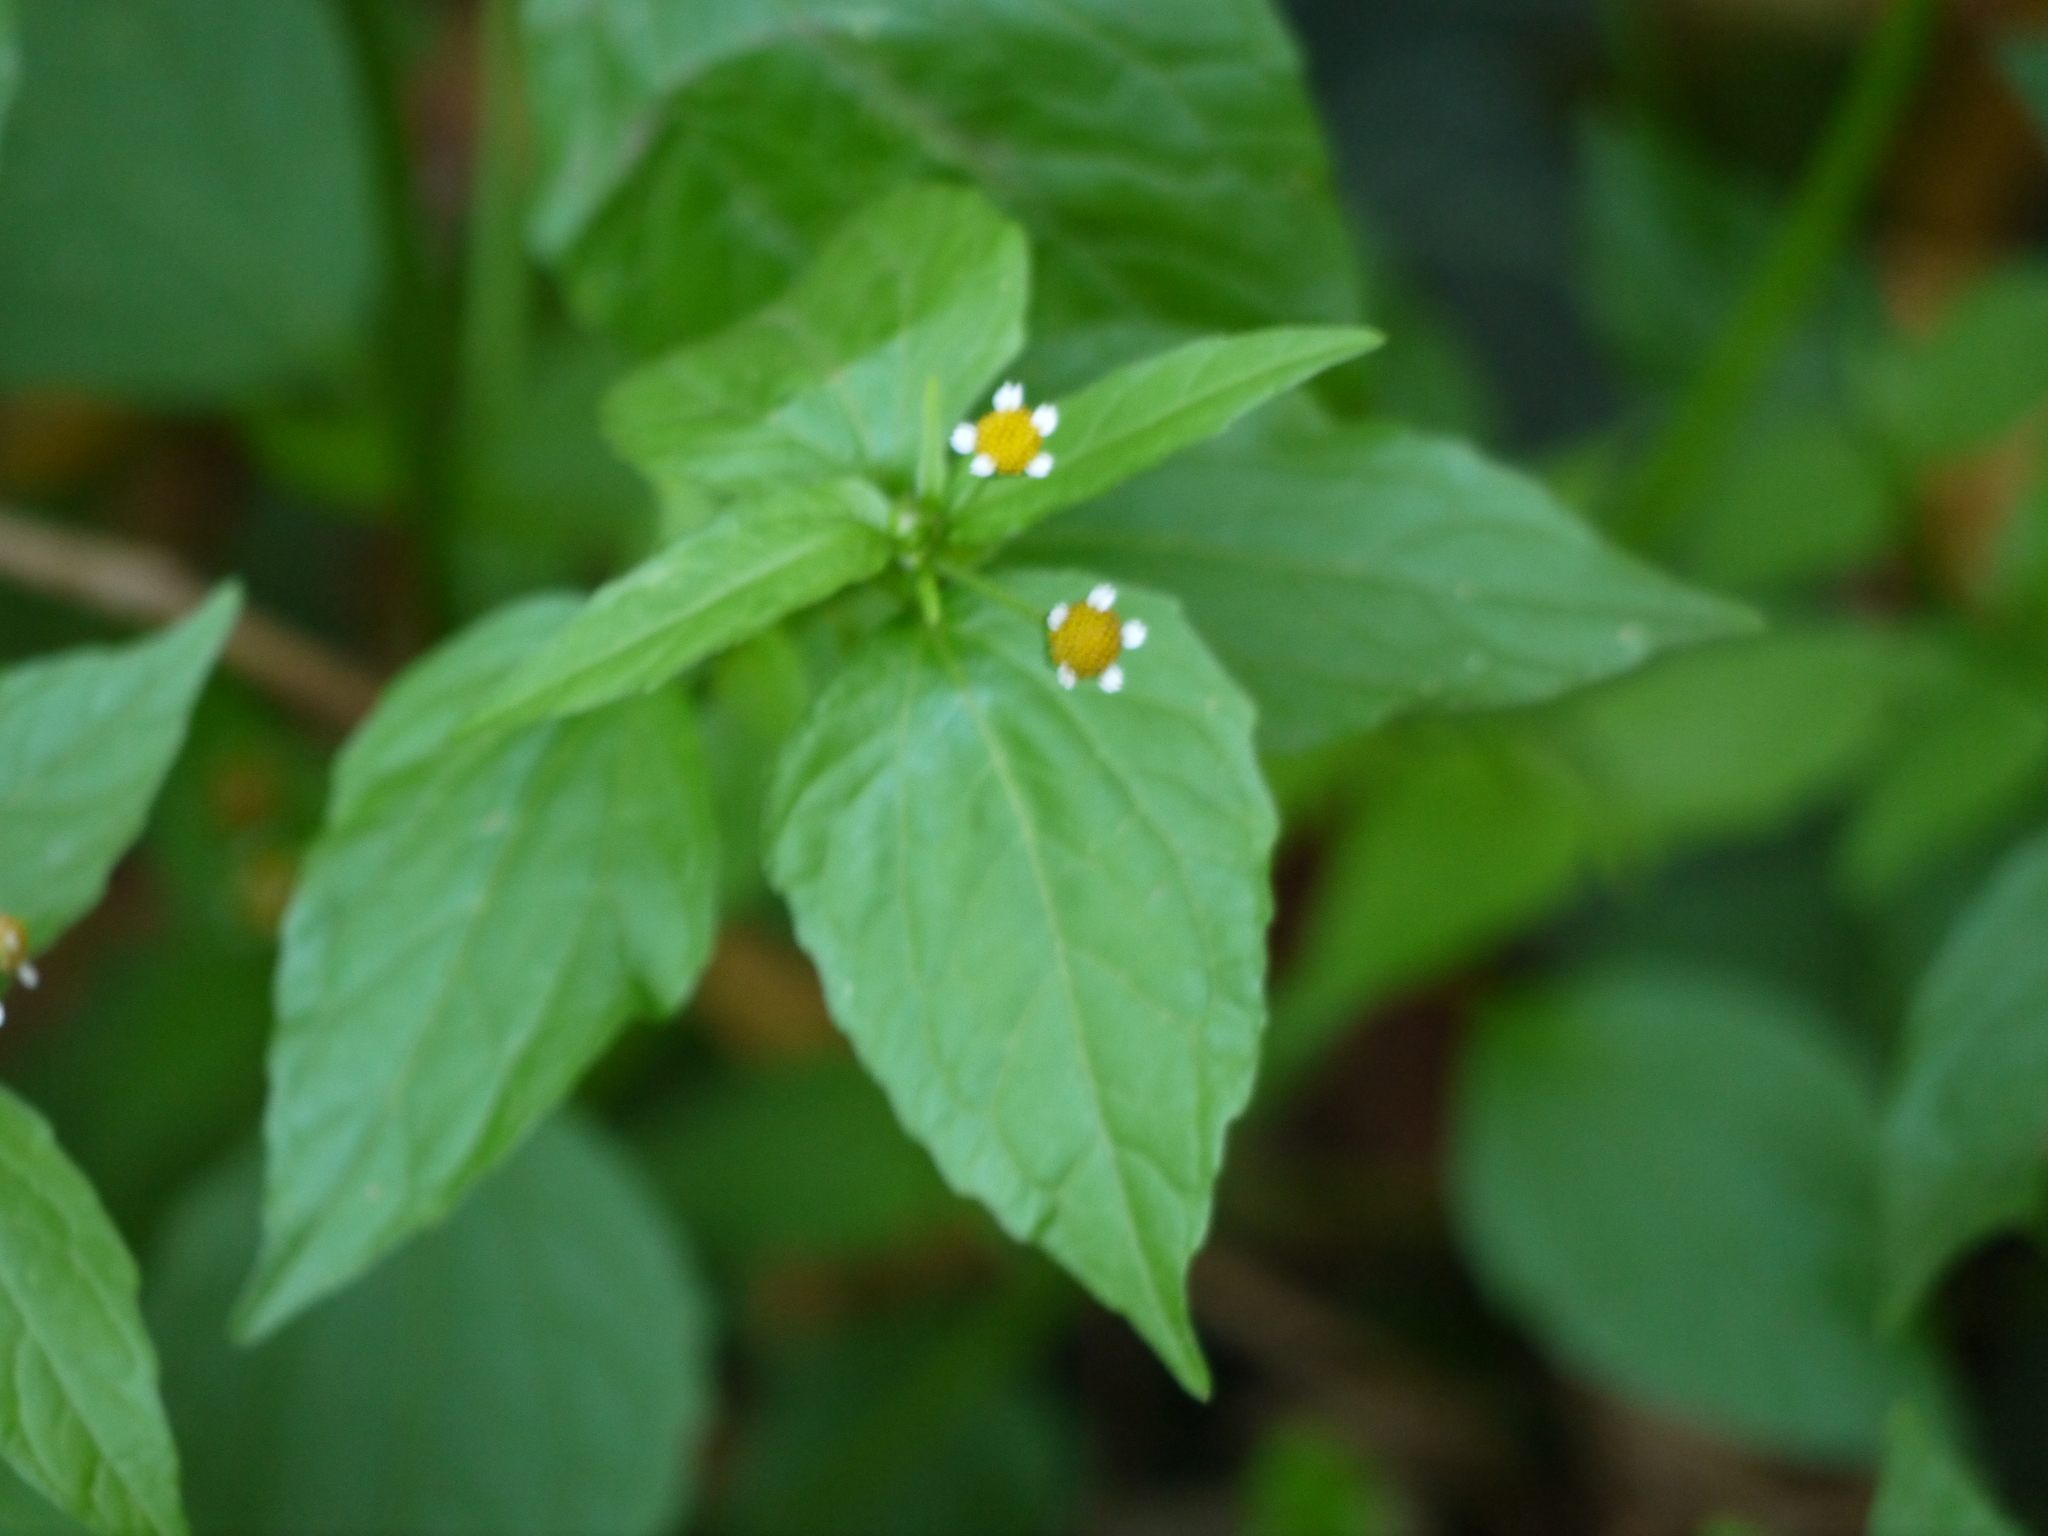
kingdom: Plantae
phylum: Tracheophyta
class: Magnoliopsida
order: Asterales
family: Asteraceae
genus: Galinsoga
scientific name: Galinsoga parviflora
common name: Gallant soldier
